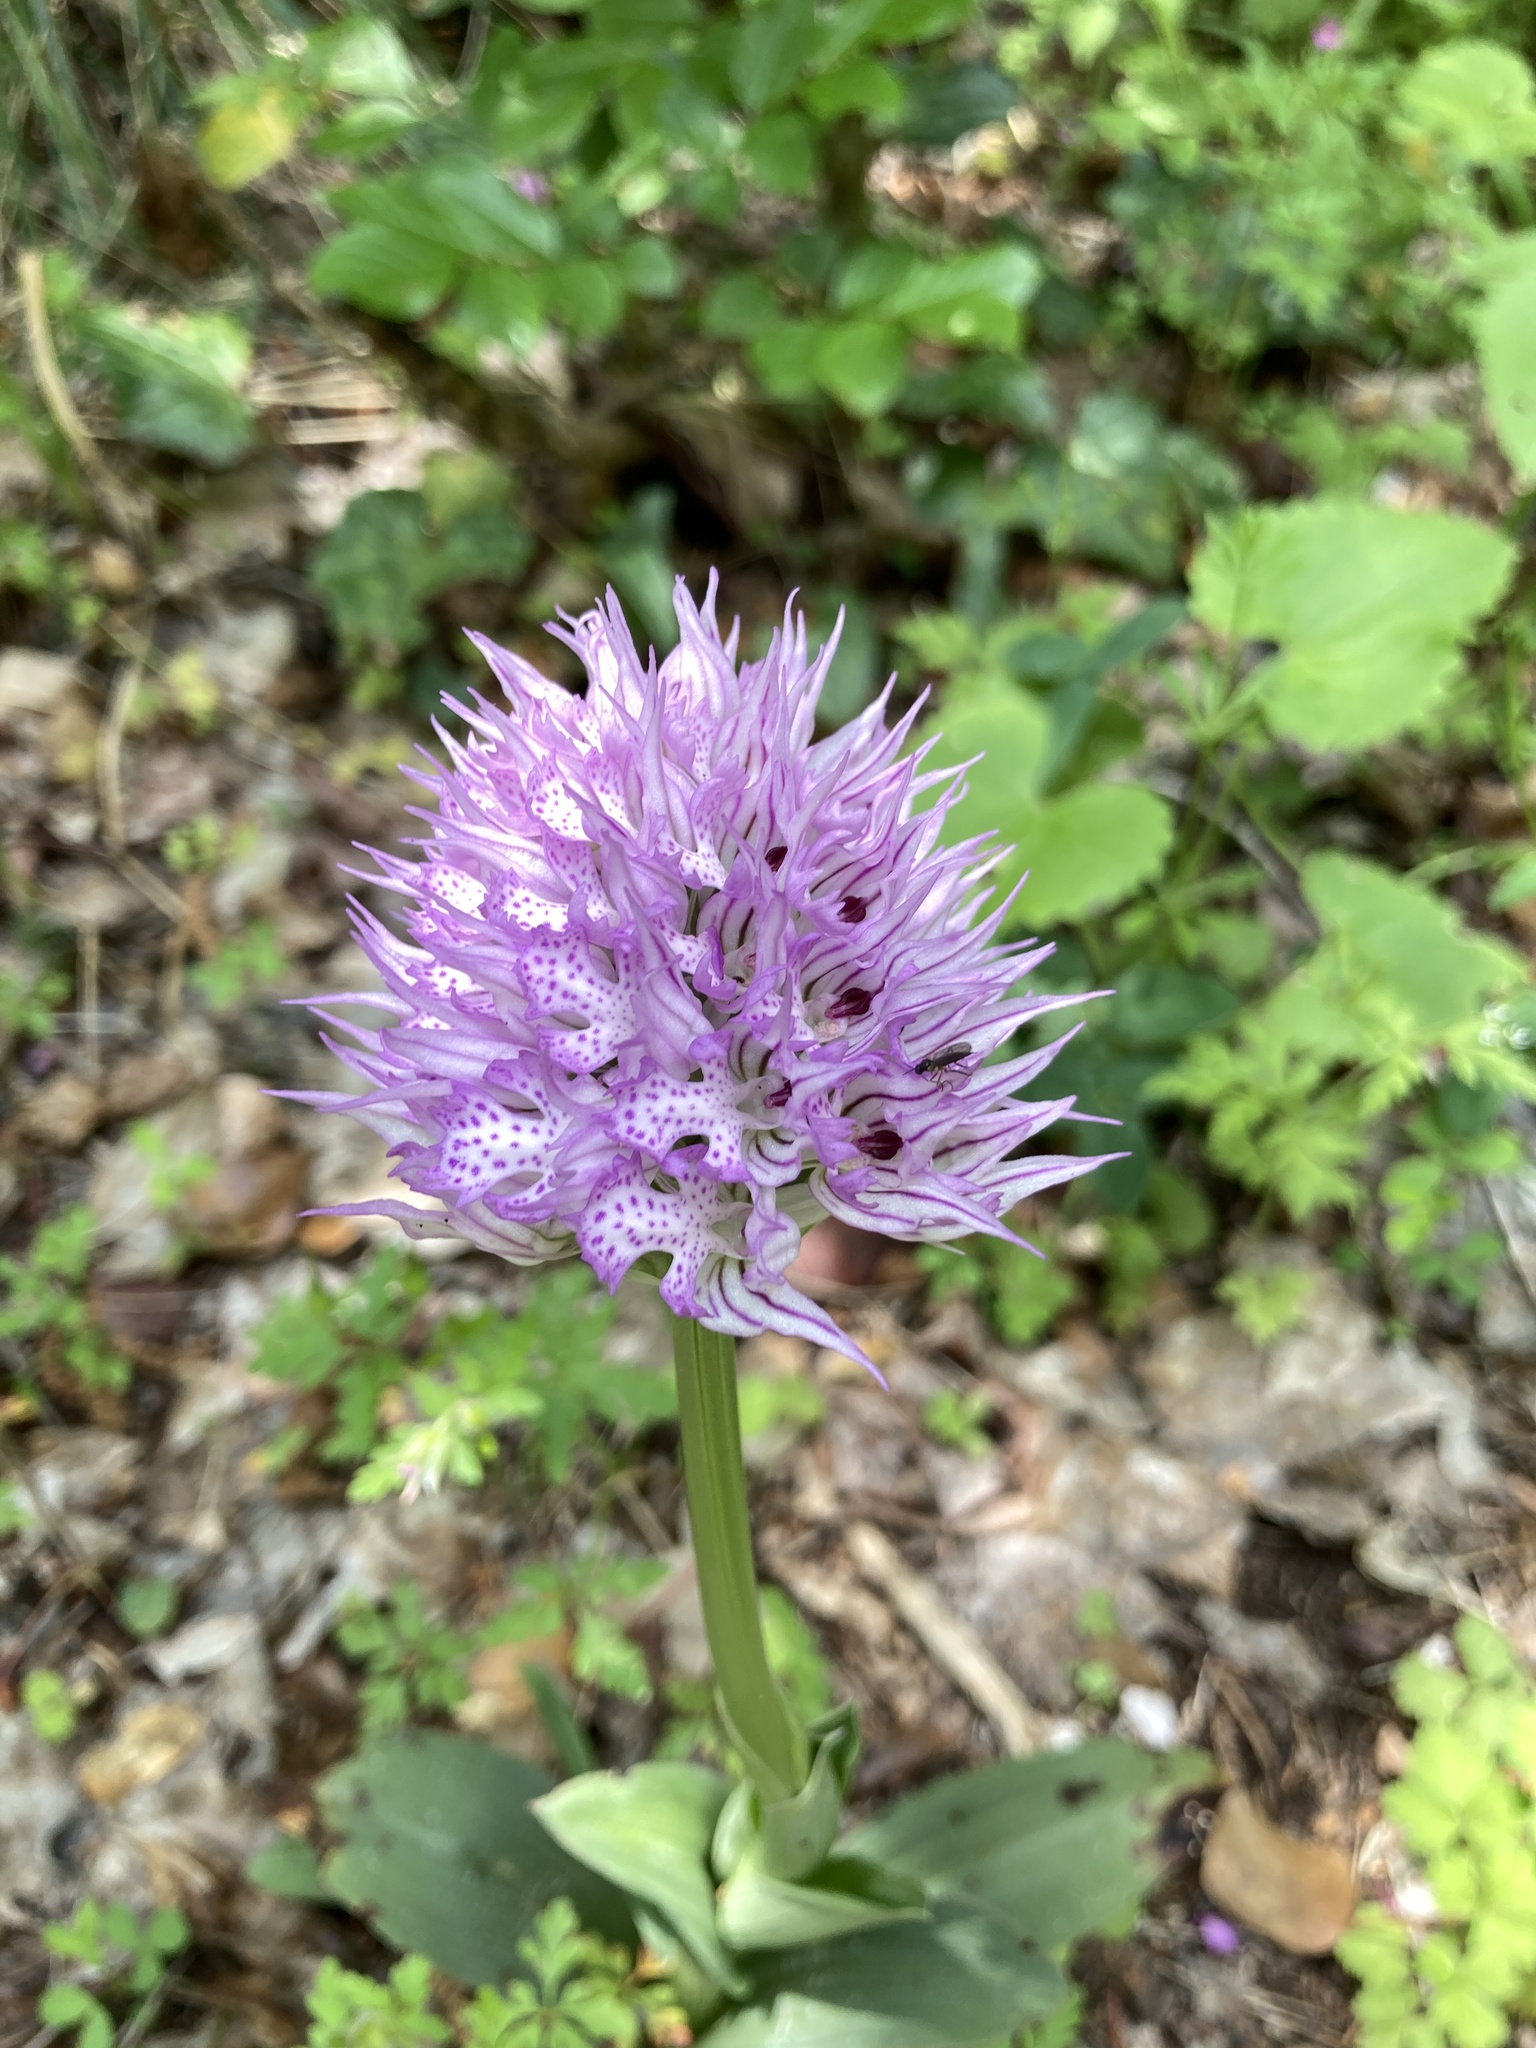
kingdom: Plantae
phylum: Tracheophyta
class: Liliopsida
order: Asparagales
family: Orchidaceae
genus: Neotinea
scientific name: Neotinea tridentata
